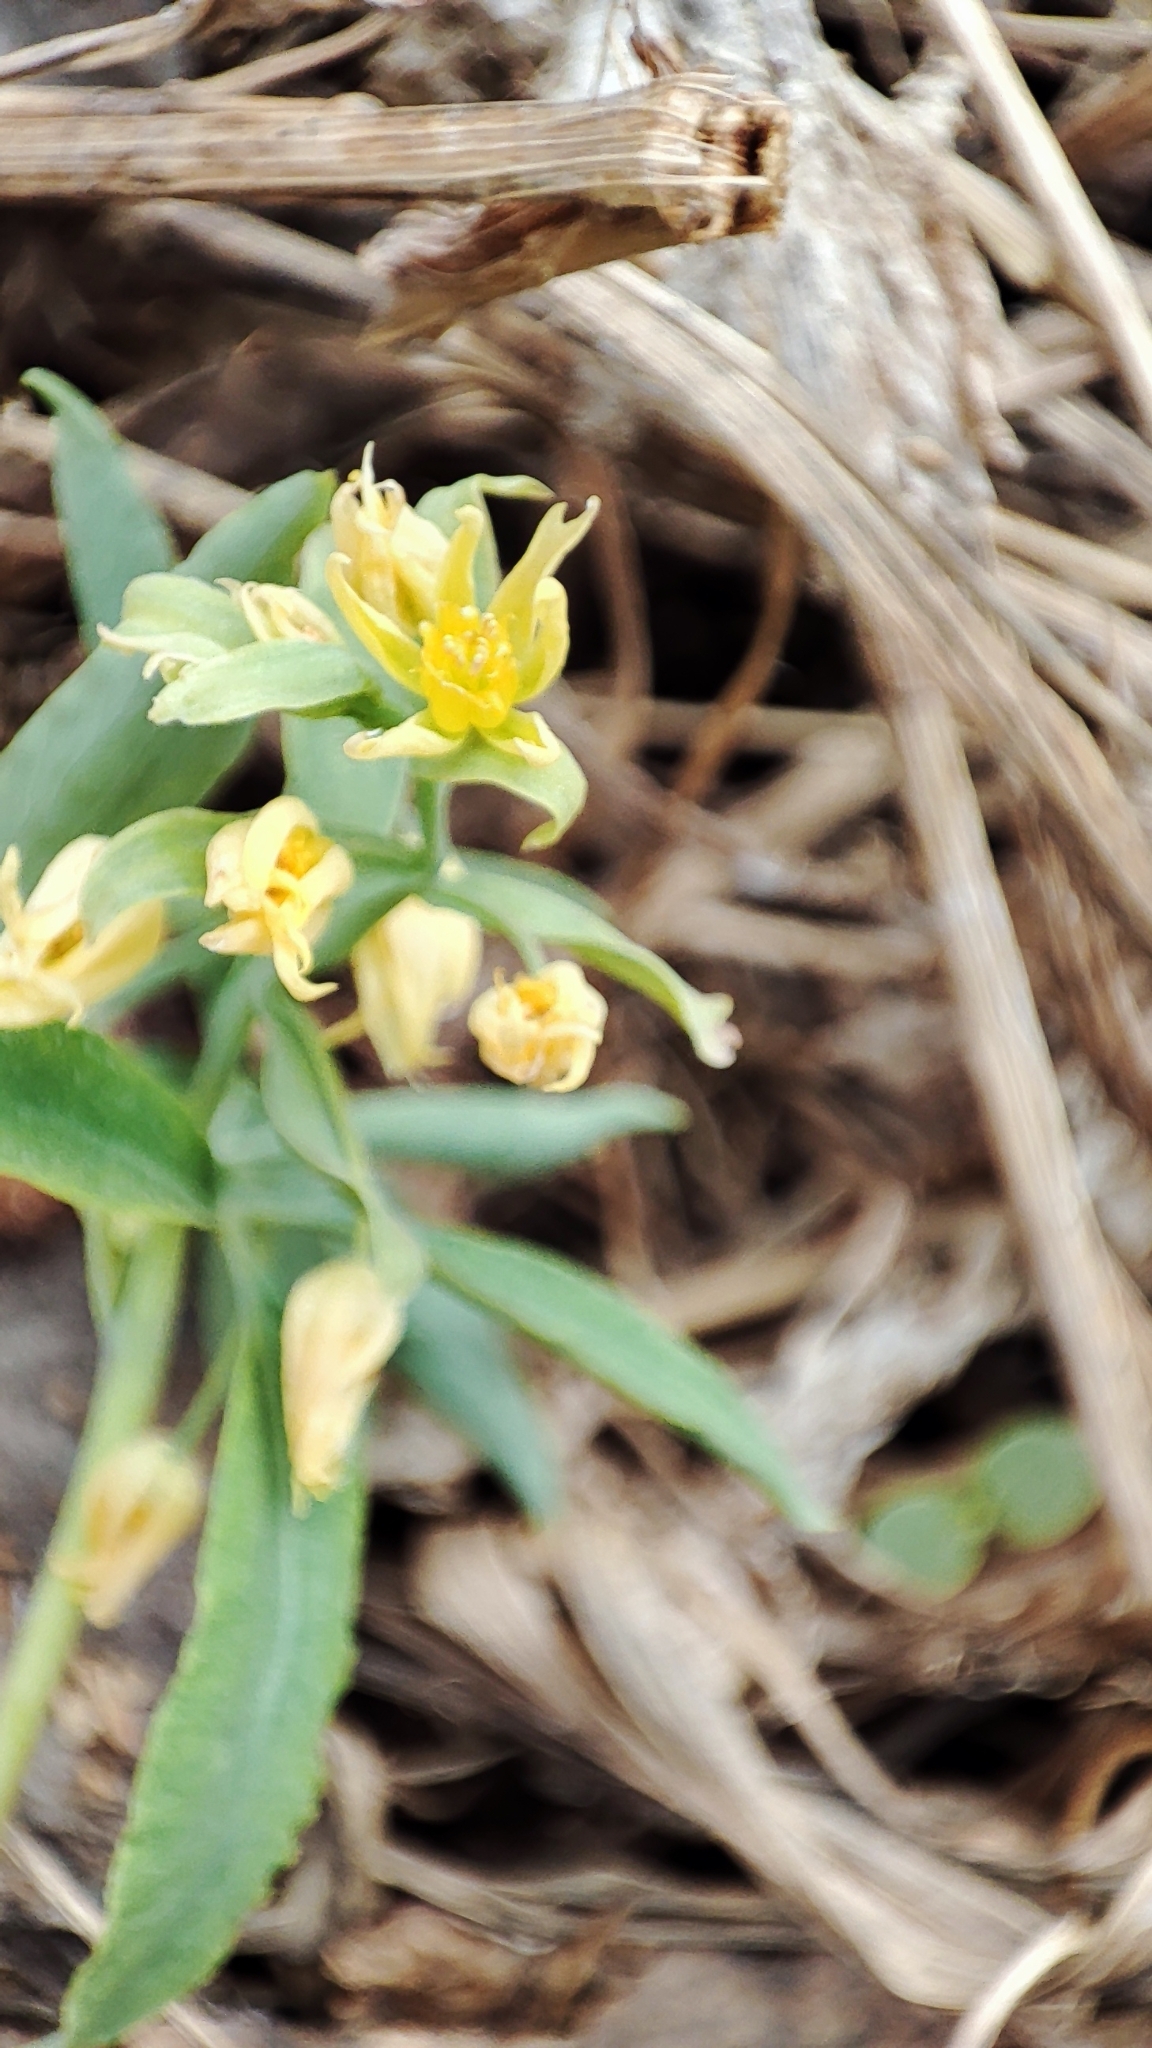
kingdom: Plantae
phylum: Tracheophyta
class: Magnoliopsida
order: Ranunculales
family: Berberidaceae
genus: Gymnospermium
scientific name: Gymnospermium altaicum
